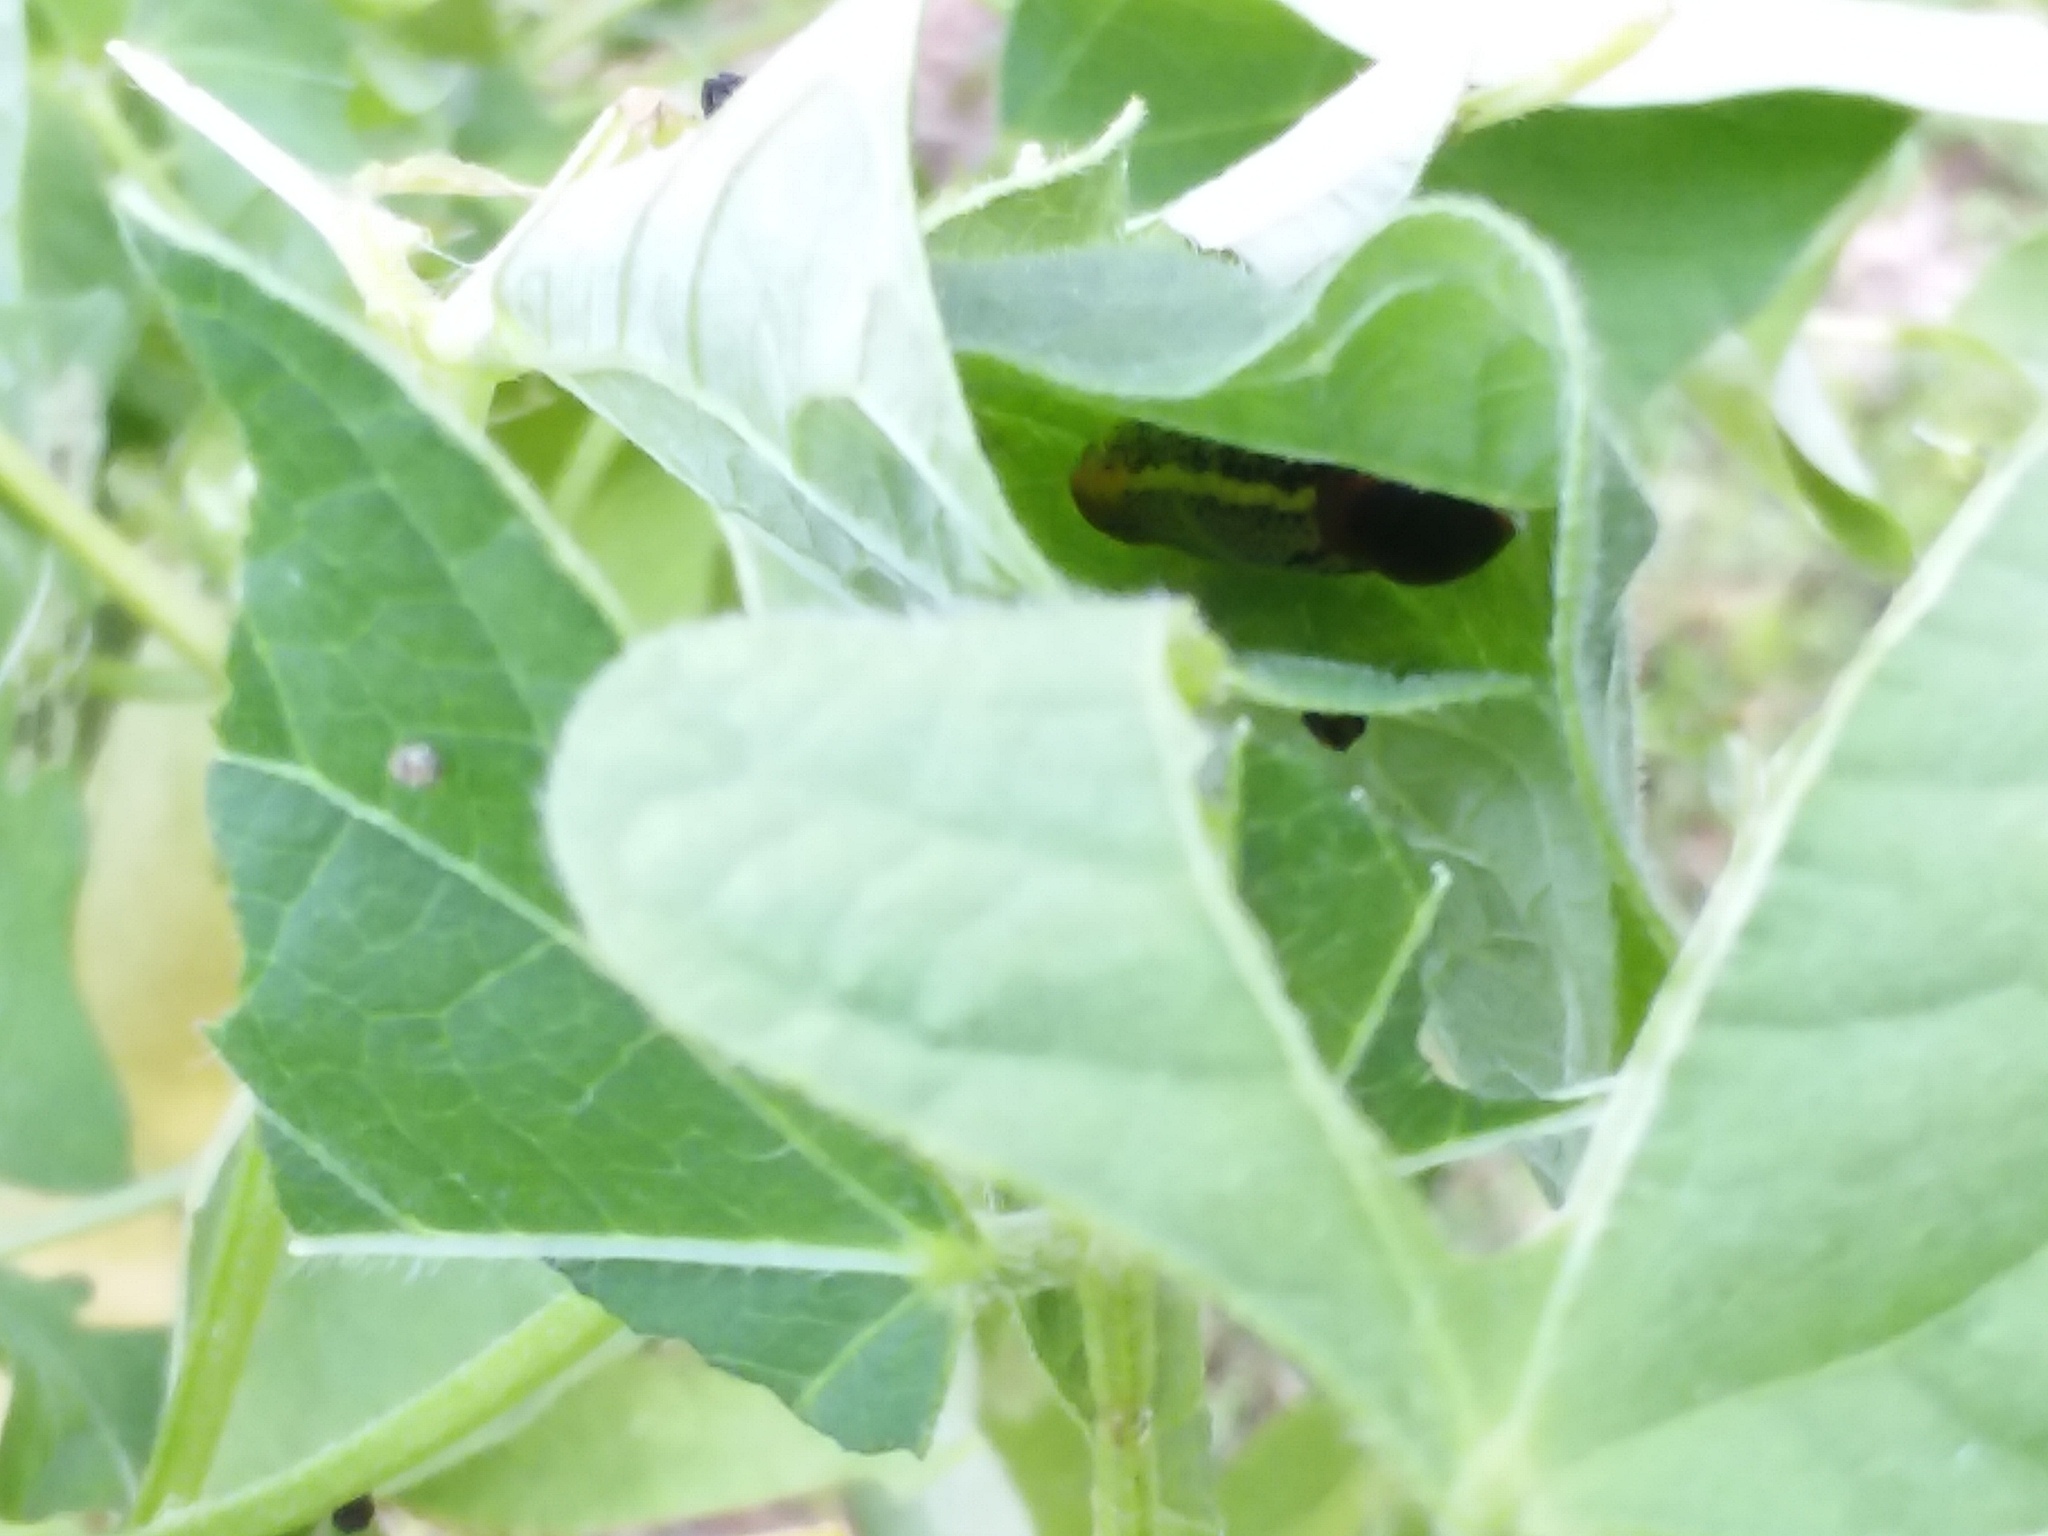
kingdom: Animalia
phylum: Arthropoda
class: Insecta
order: Lepidoptera
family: Hesperiidae
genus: Urbanus
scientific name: Urbanus proteus
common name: Long-tailed skipper
